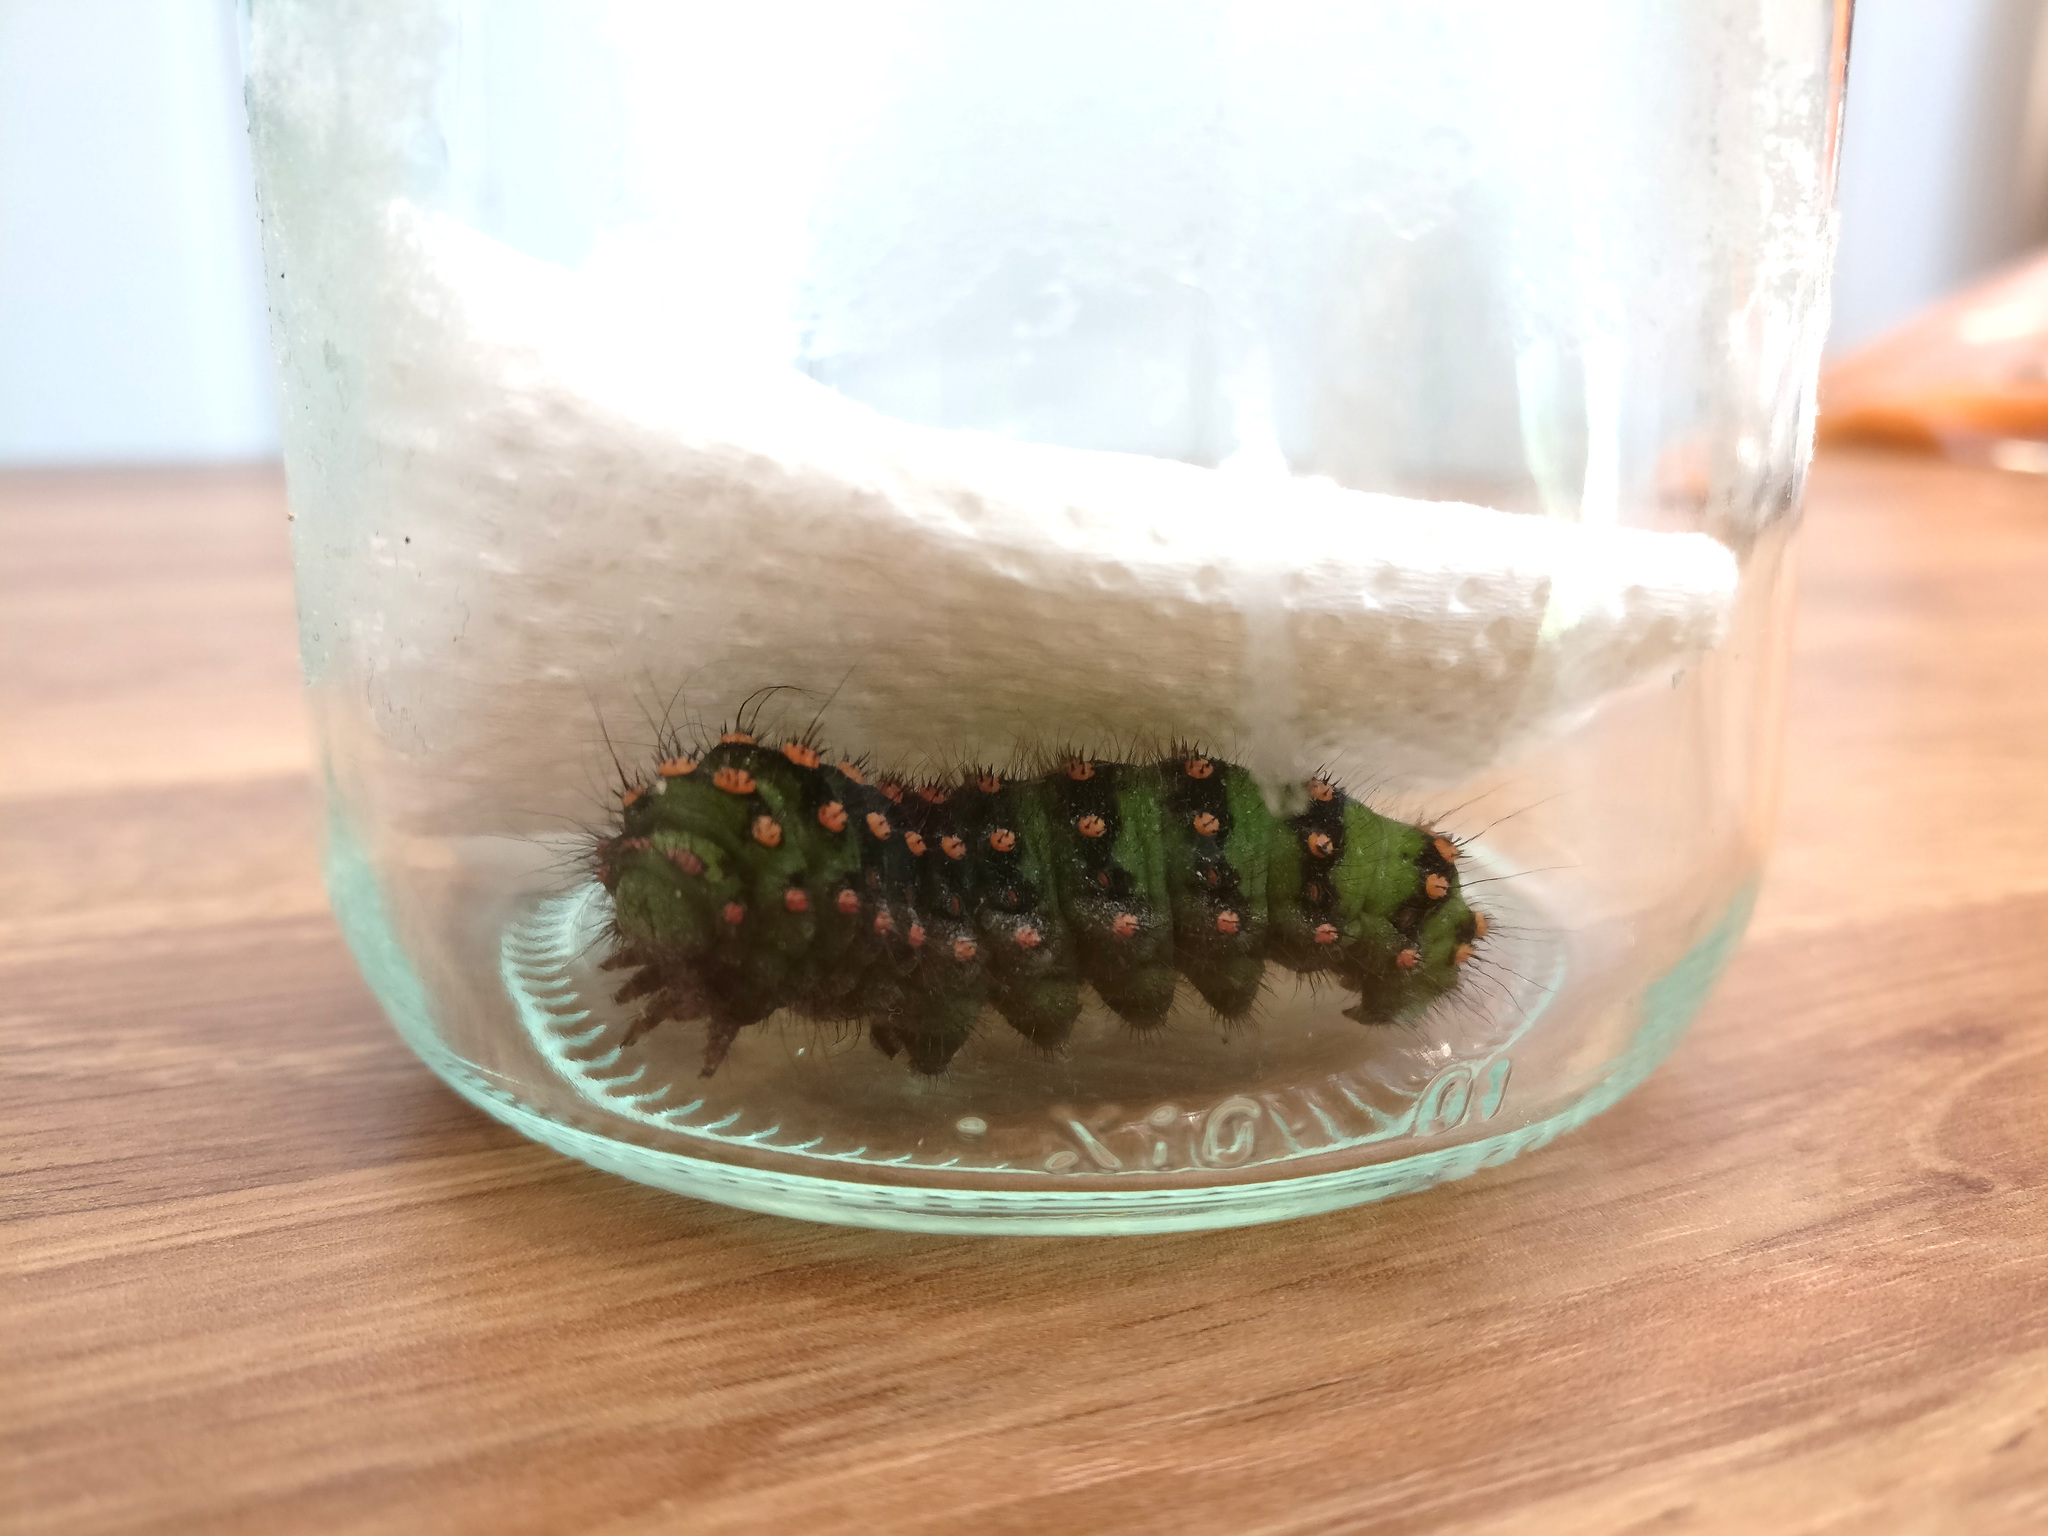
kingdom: Animalia
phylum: Arthropoda
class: Insecta
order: Lepidoptera
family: Saturniidae
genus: Saturnia
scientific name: Saturnia pavonia
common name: Emperor moth
